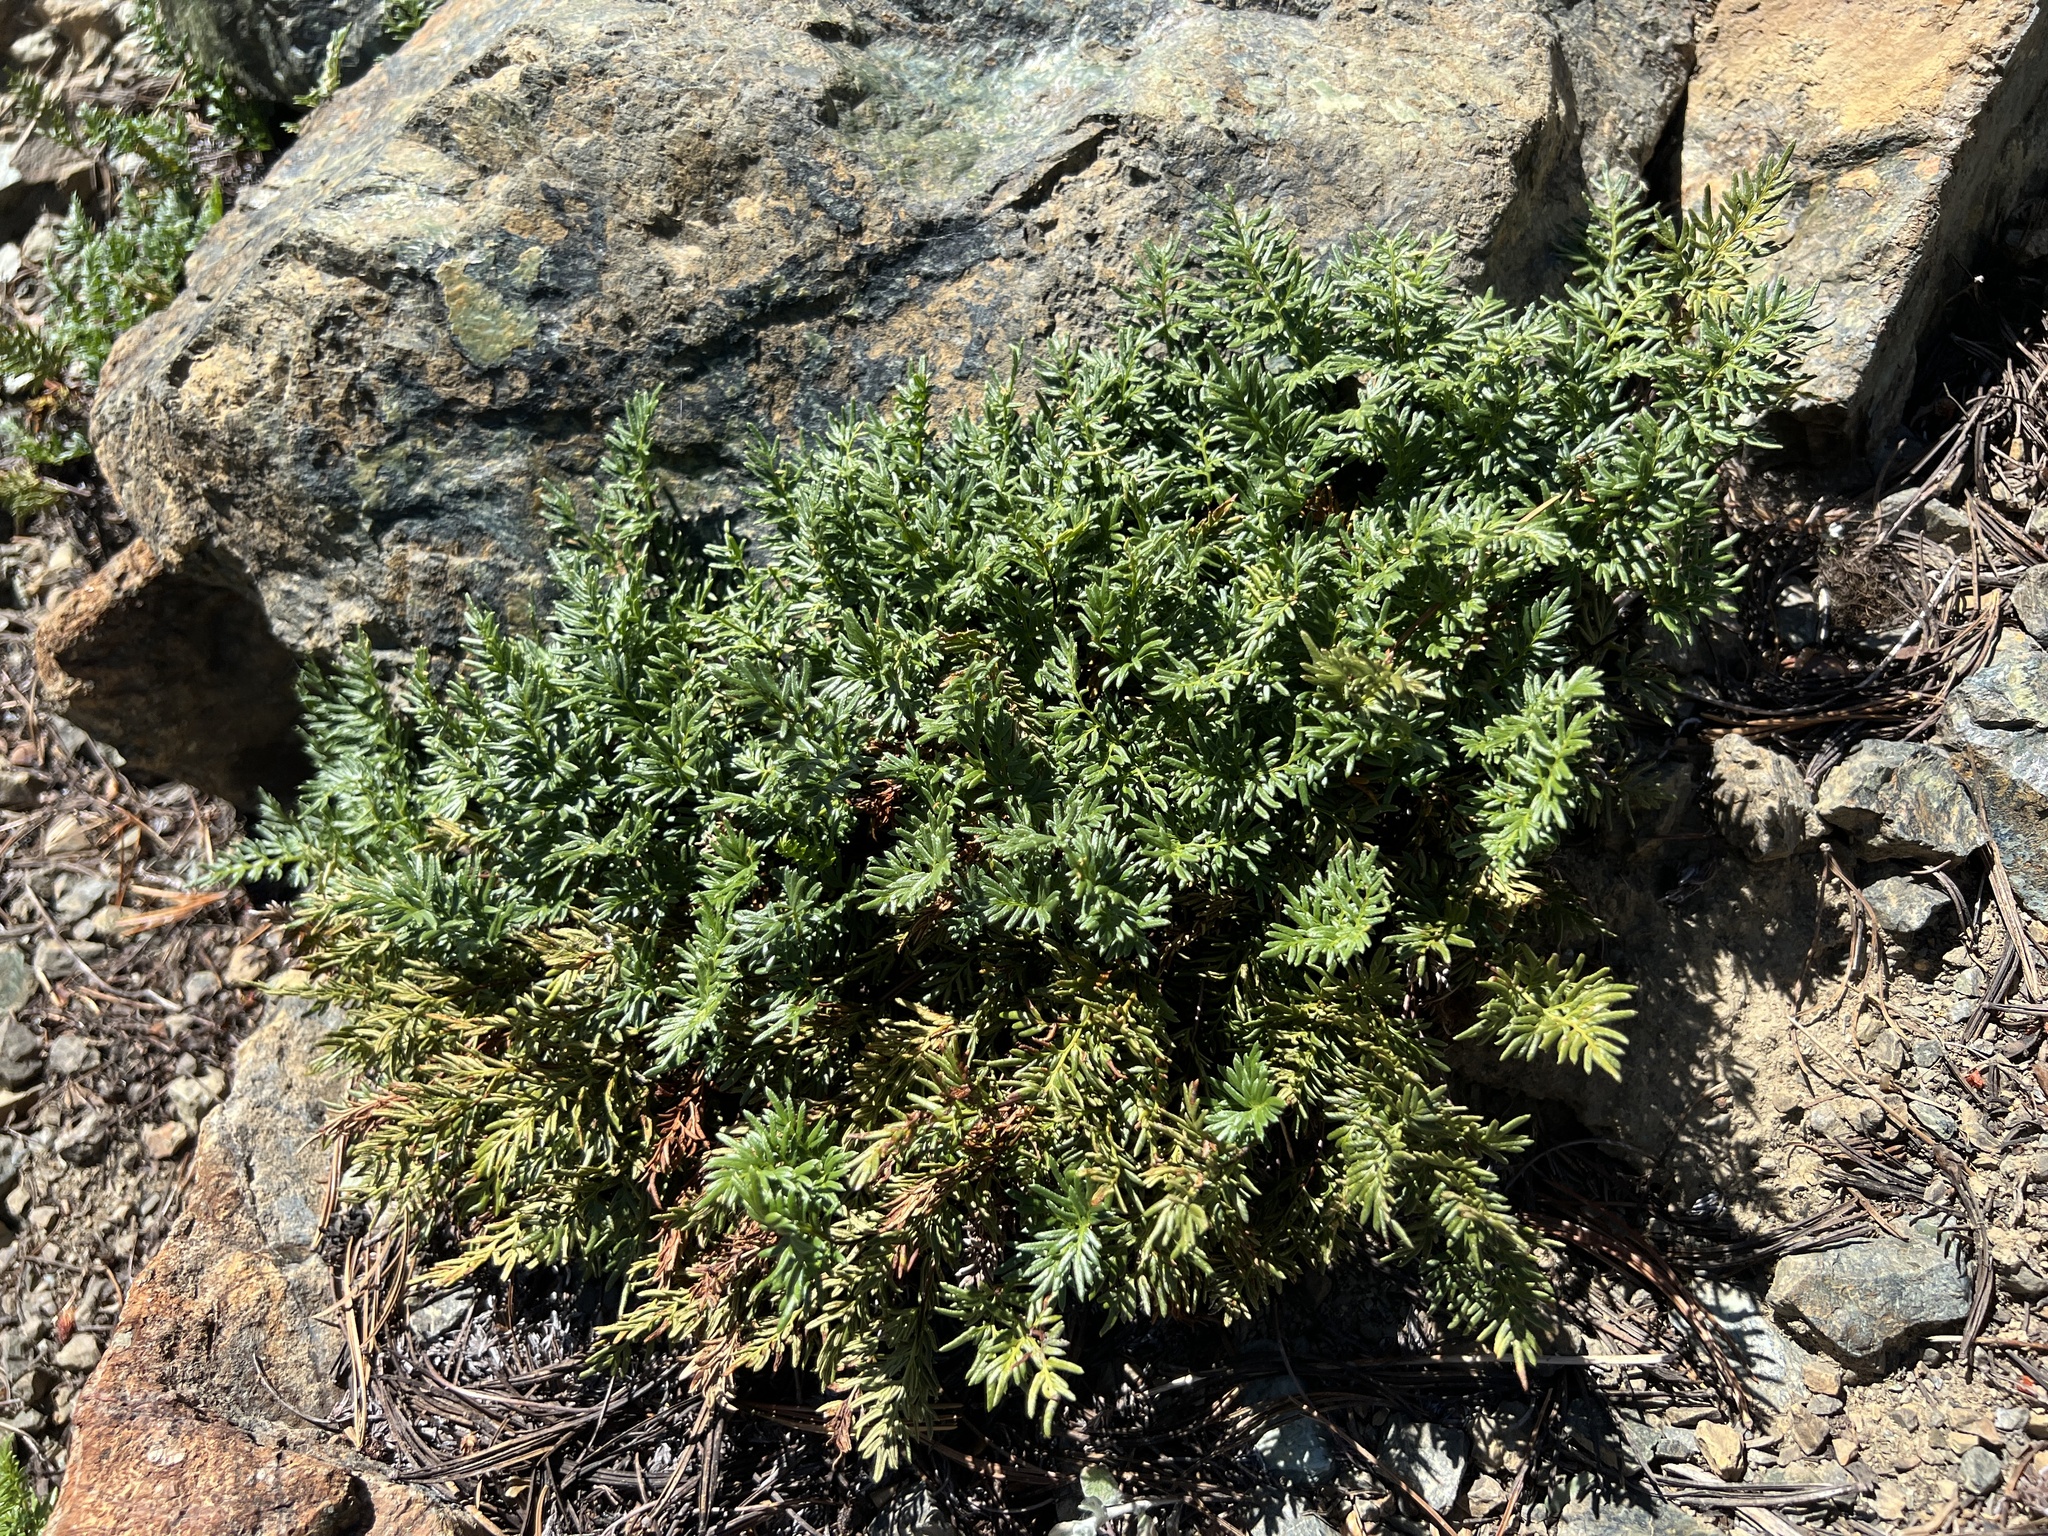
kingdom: Plantae
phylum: Tracheophyta
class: Polypodiopsida
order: Polypodiales
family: Pteridaceae
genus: Aspidotis
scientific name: Aspidotis densa
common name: Indian's dream
